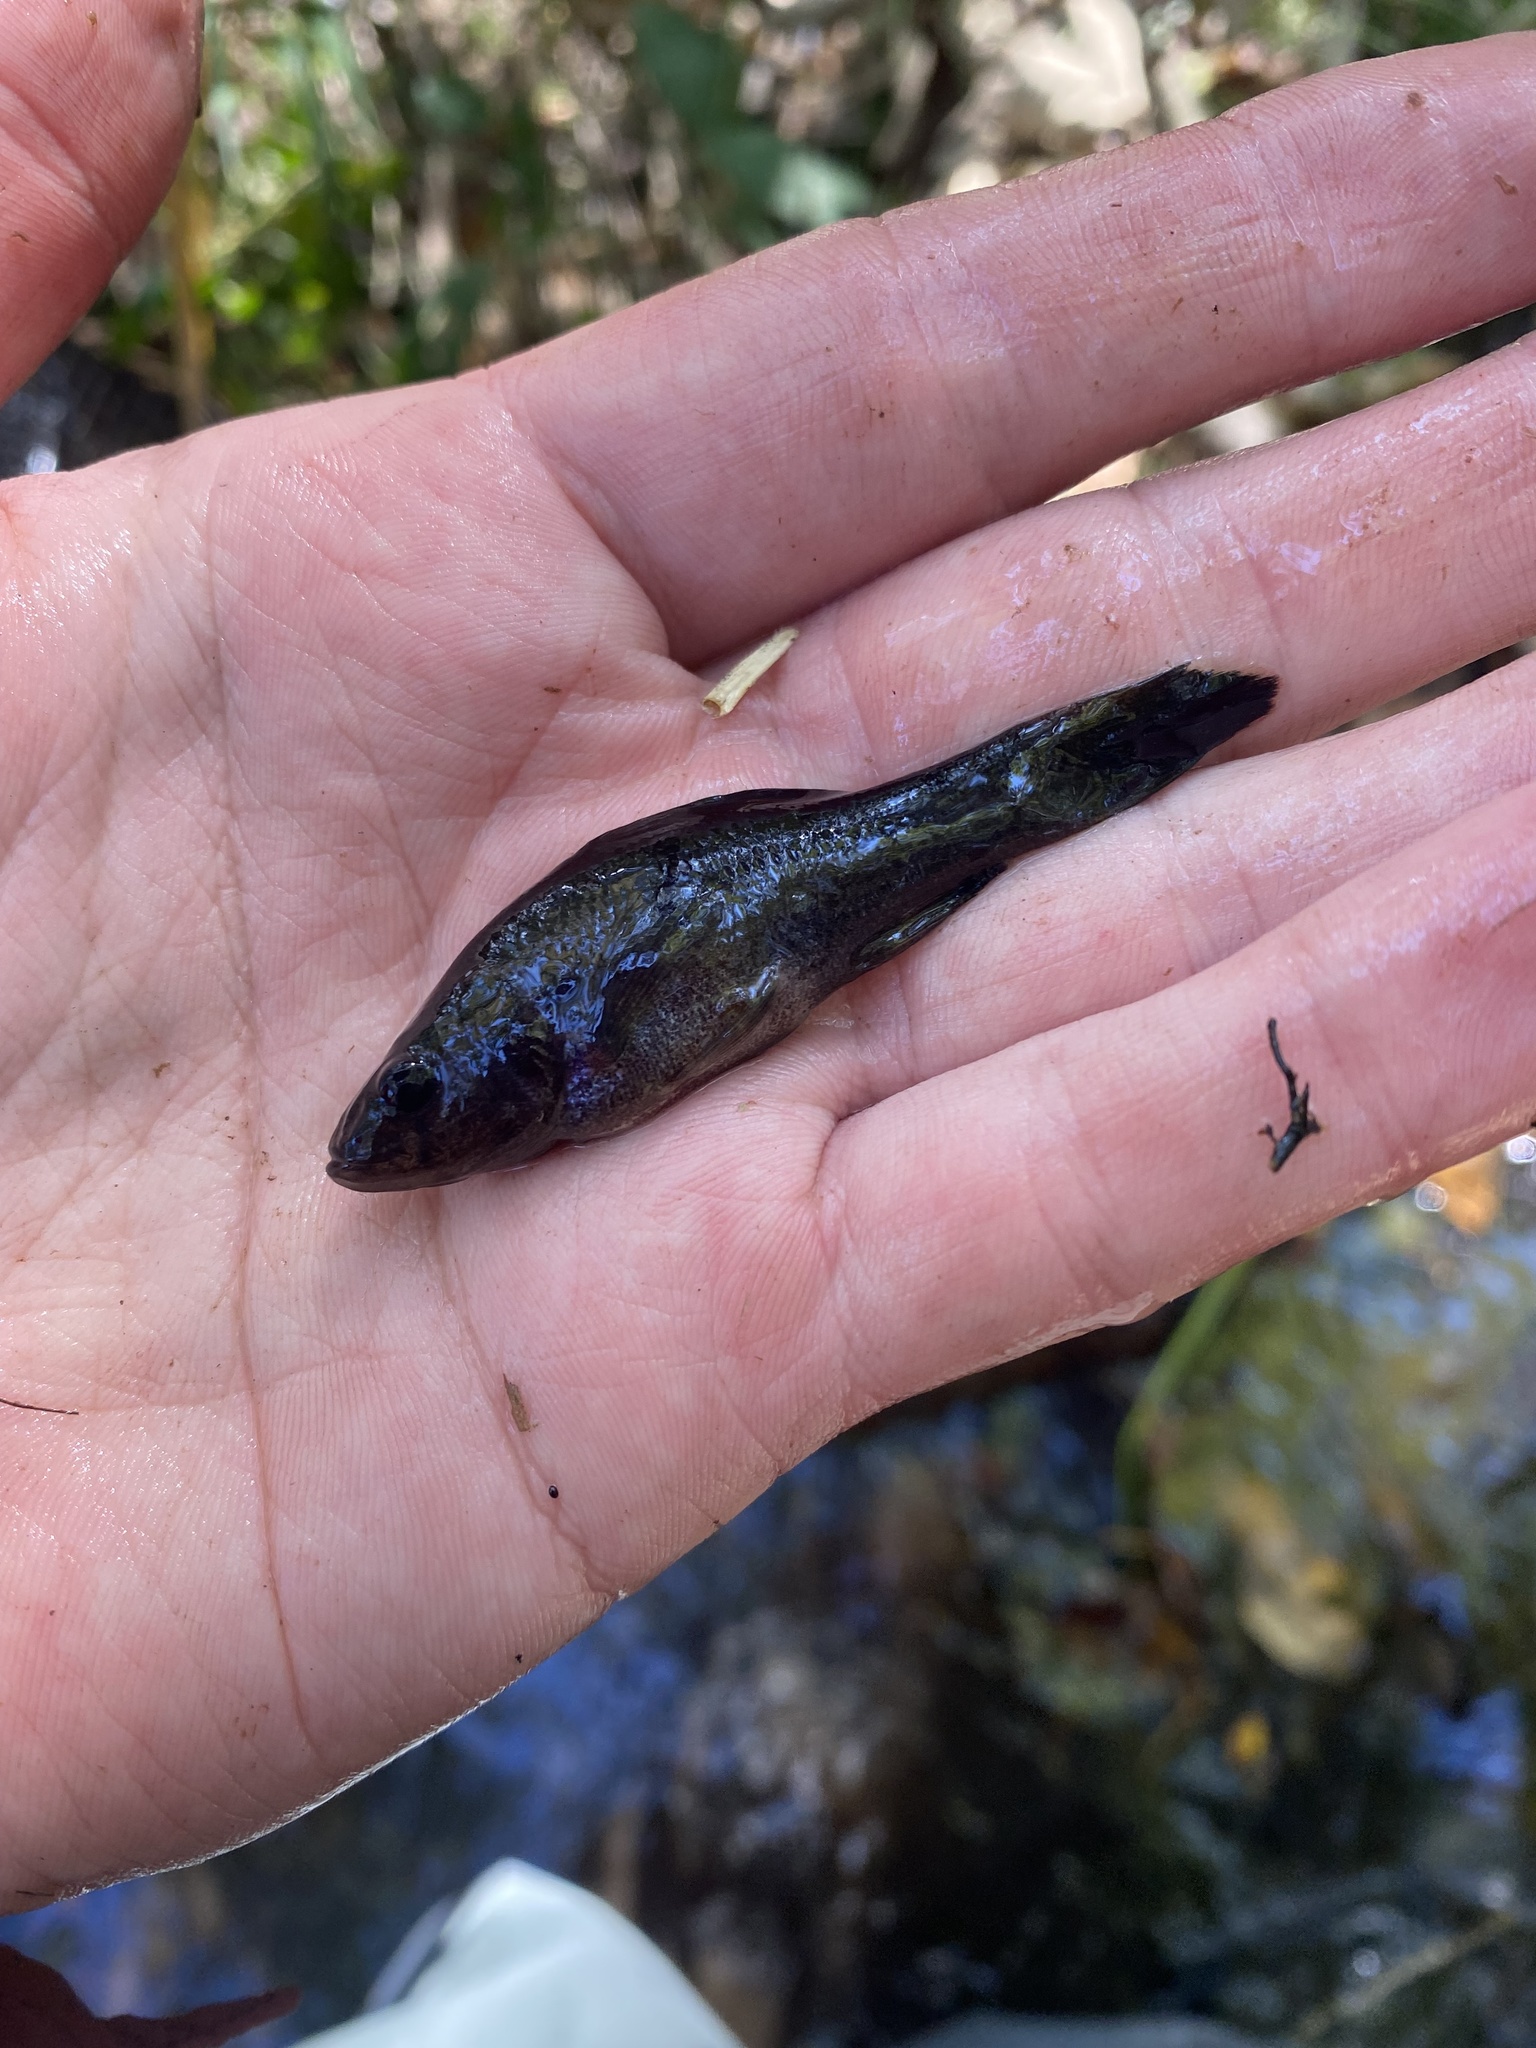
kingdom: Animalia
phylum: Chordata
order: Percopsiformes
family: Aphredoderidae
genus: Aphredoderus
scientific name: Aphredoderus
